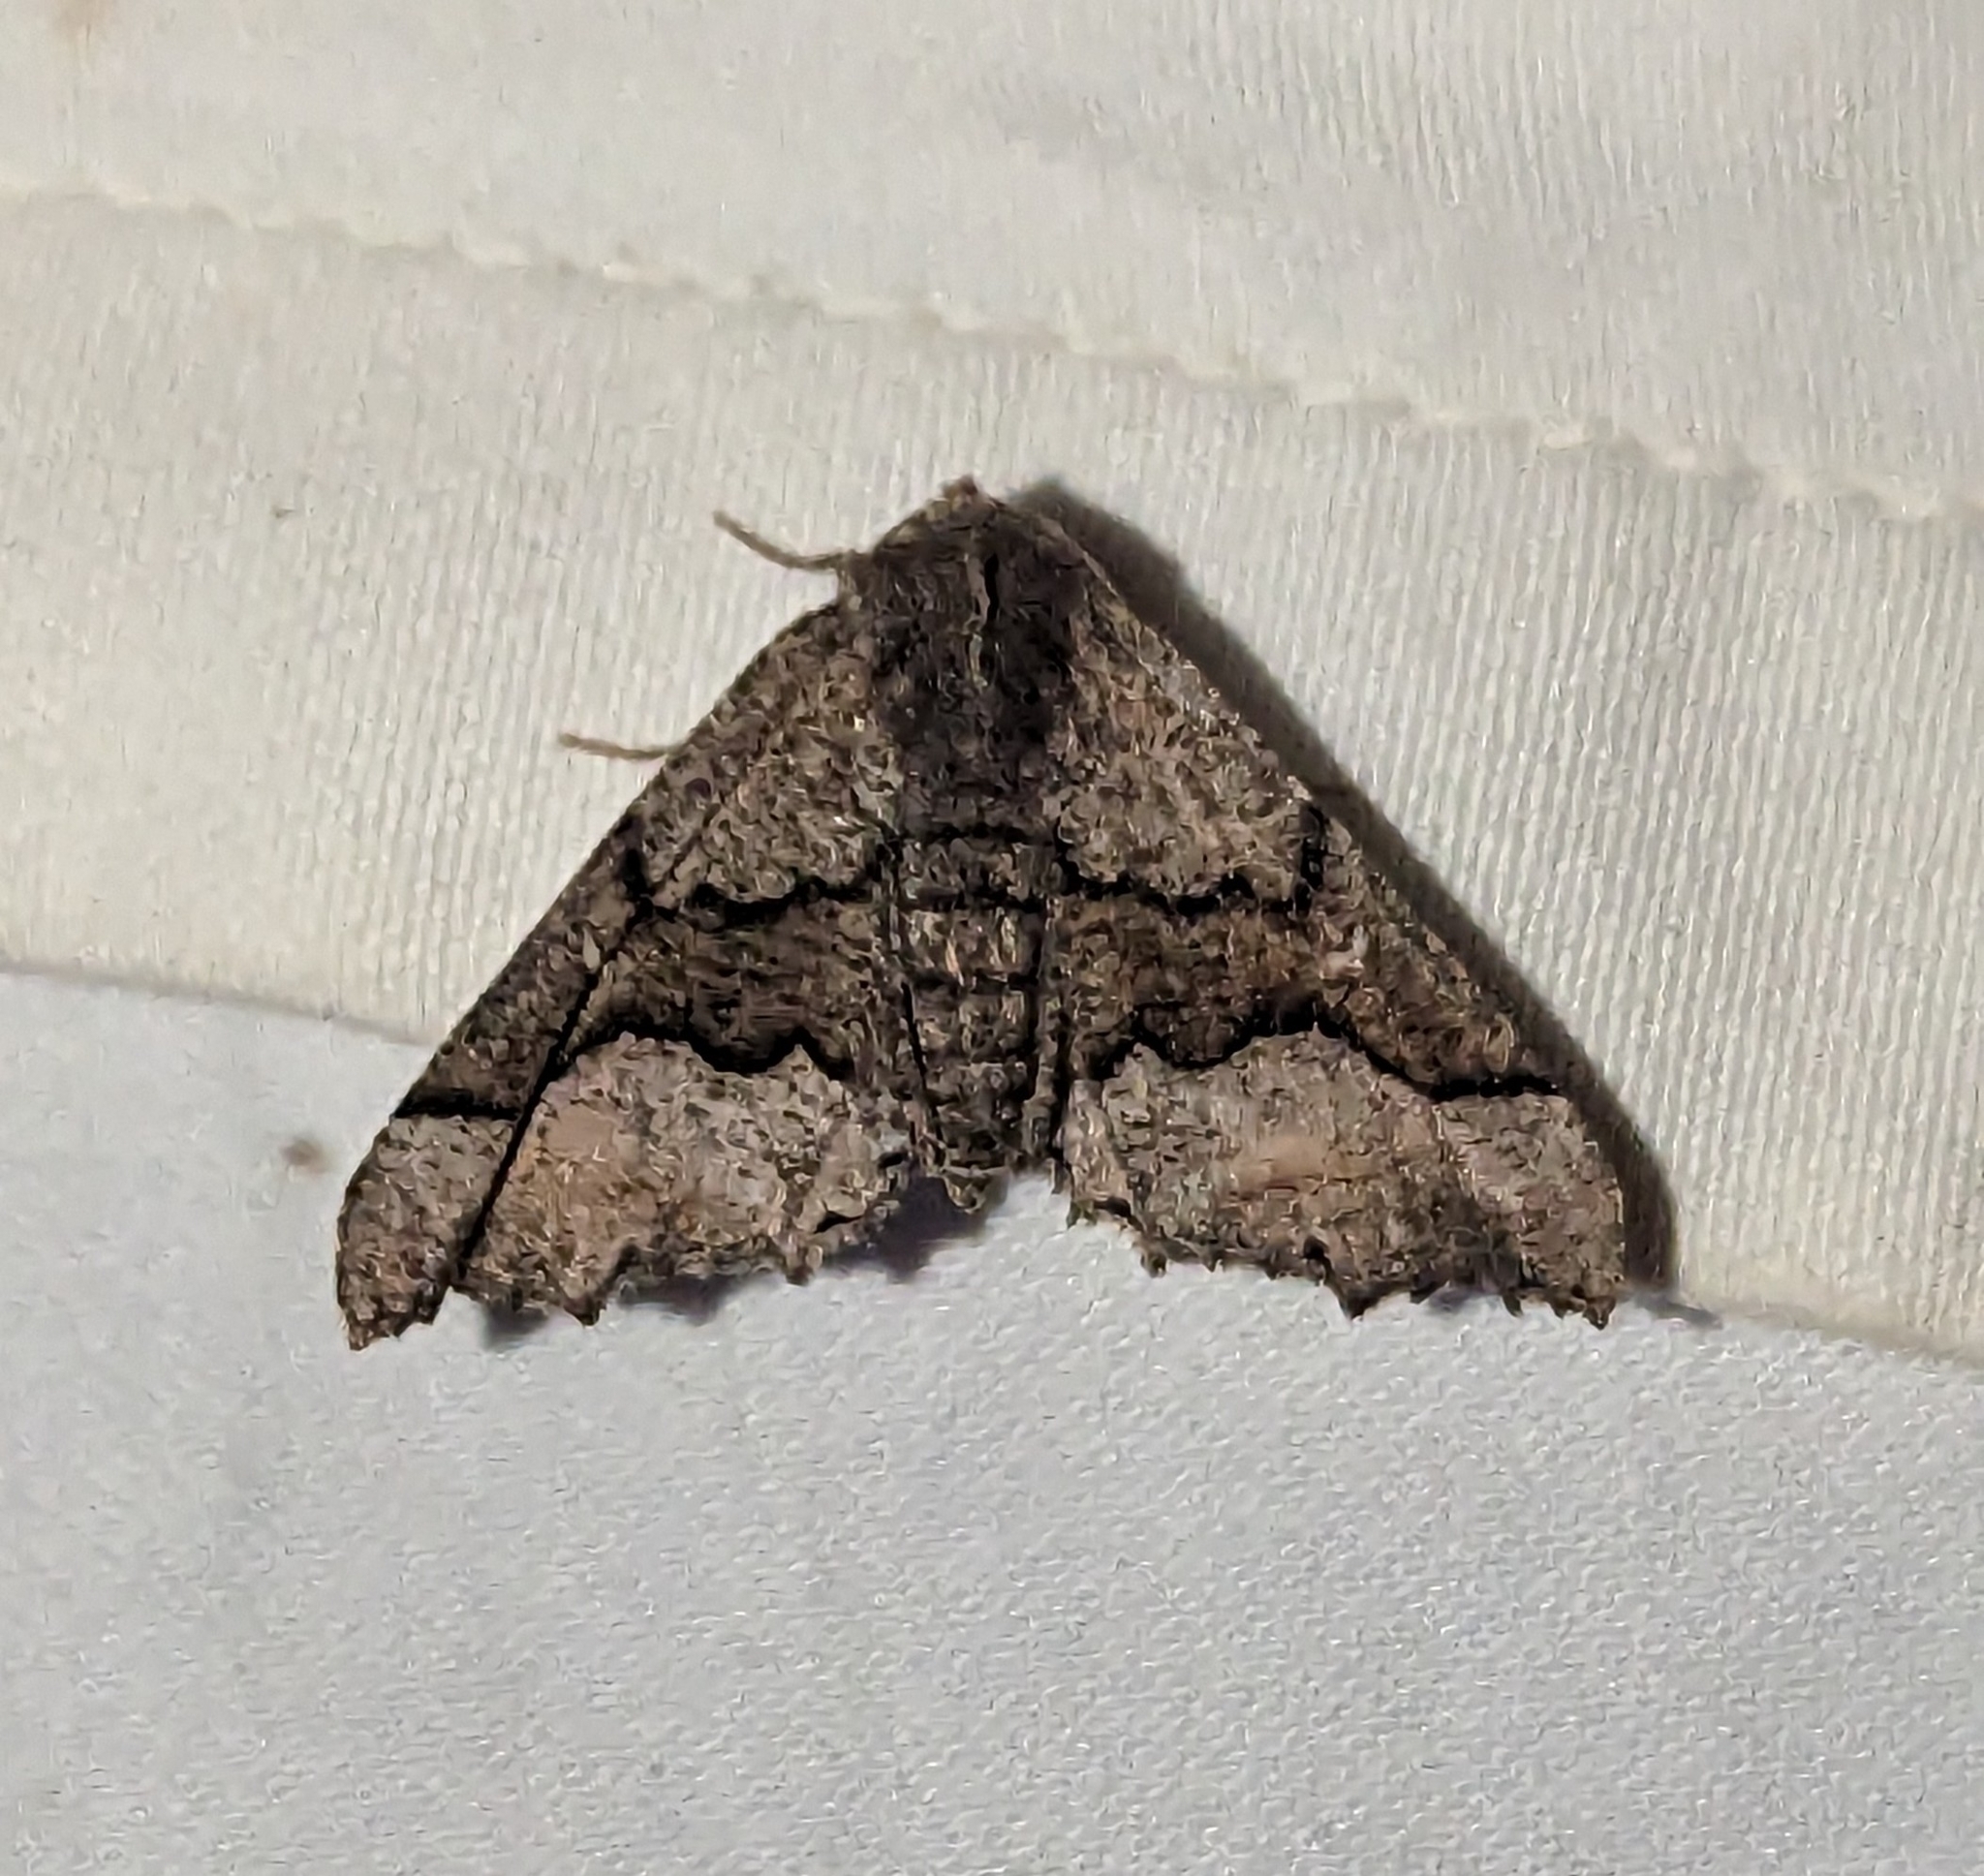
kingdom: Animalia
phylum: Arthropoda
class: Insecta
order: Lepidoptera
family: Geometridae
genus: Pero
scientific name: Pero behrensaria
